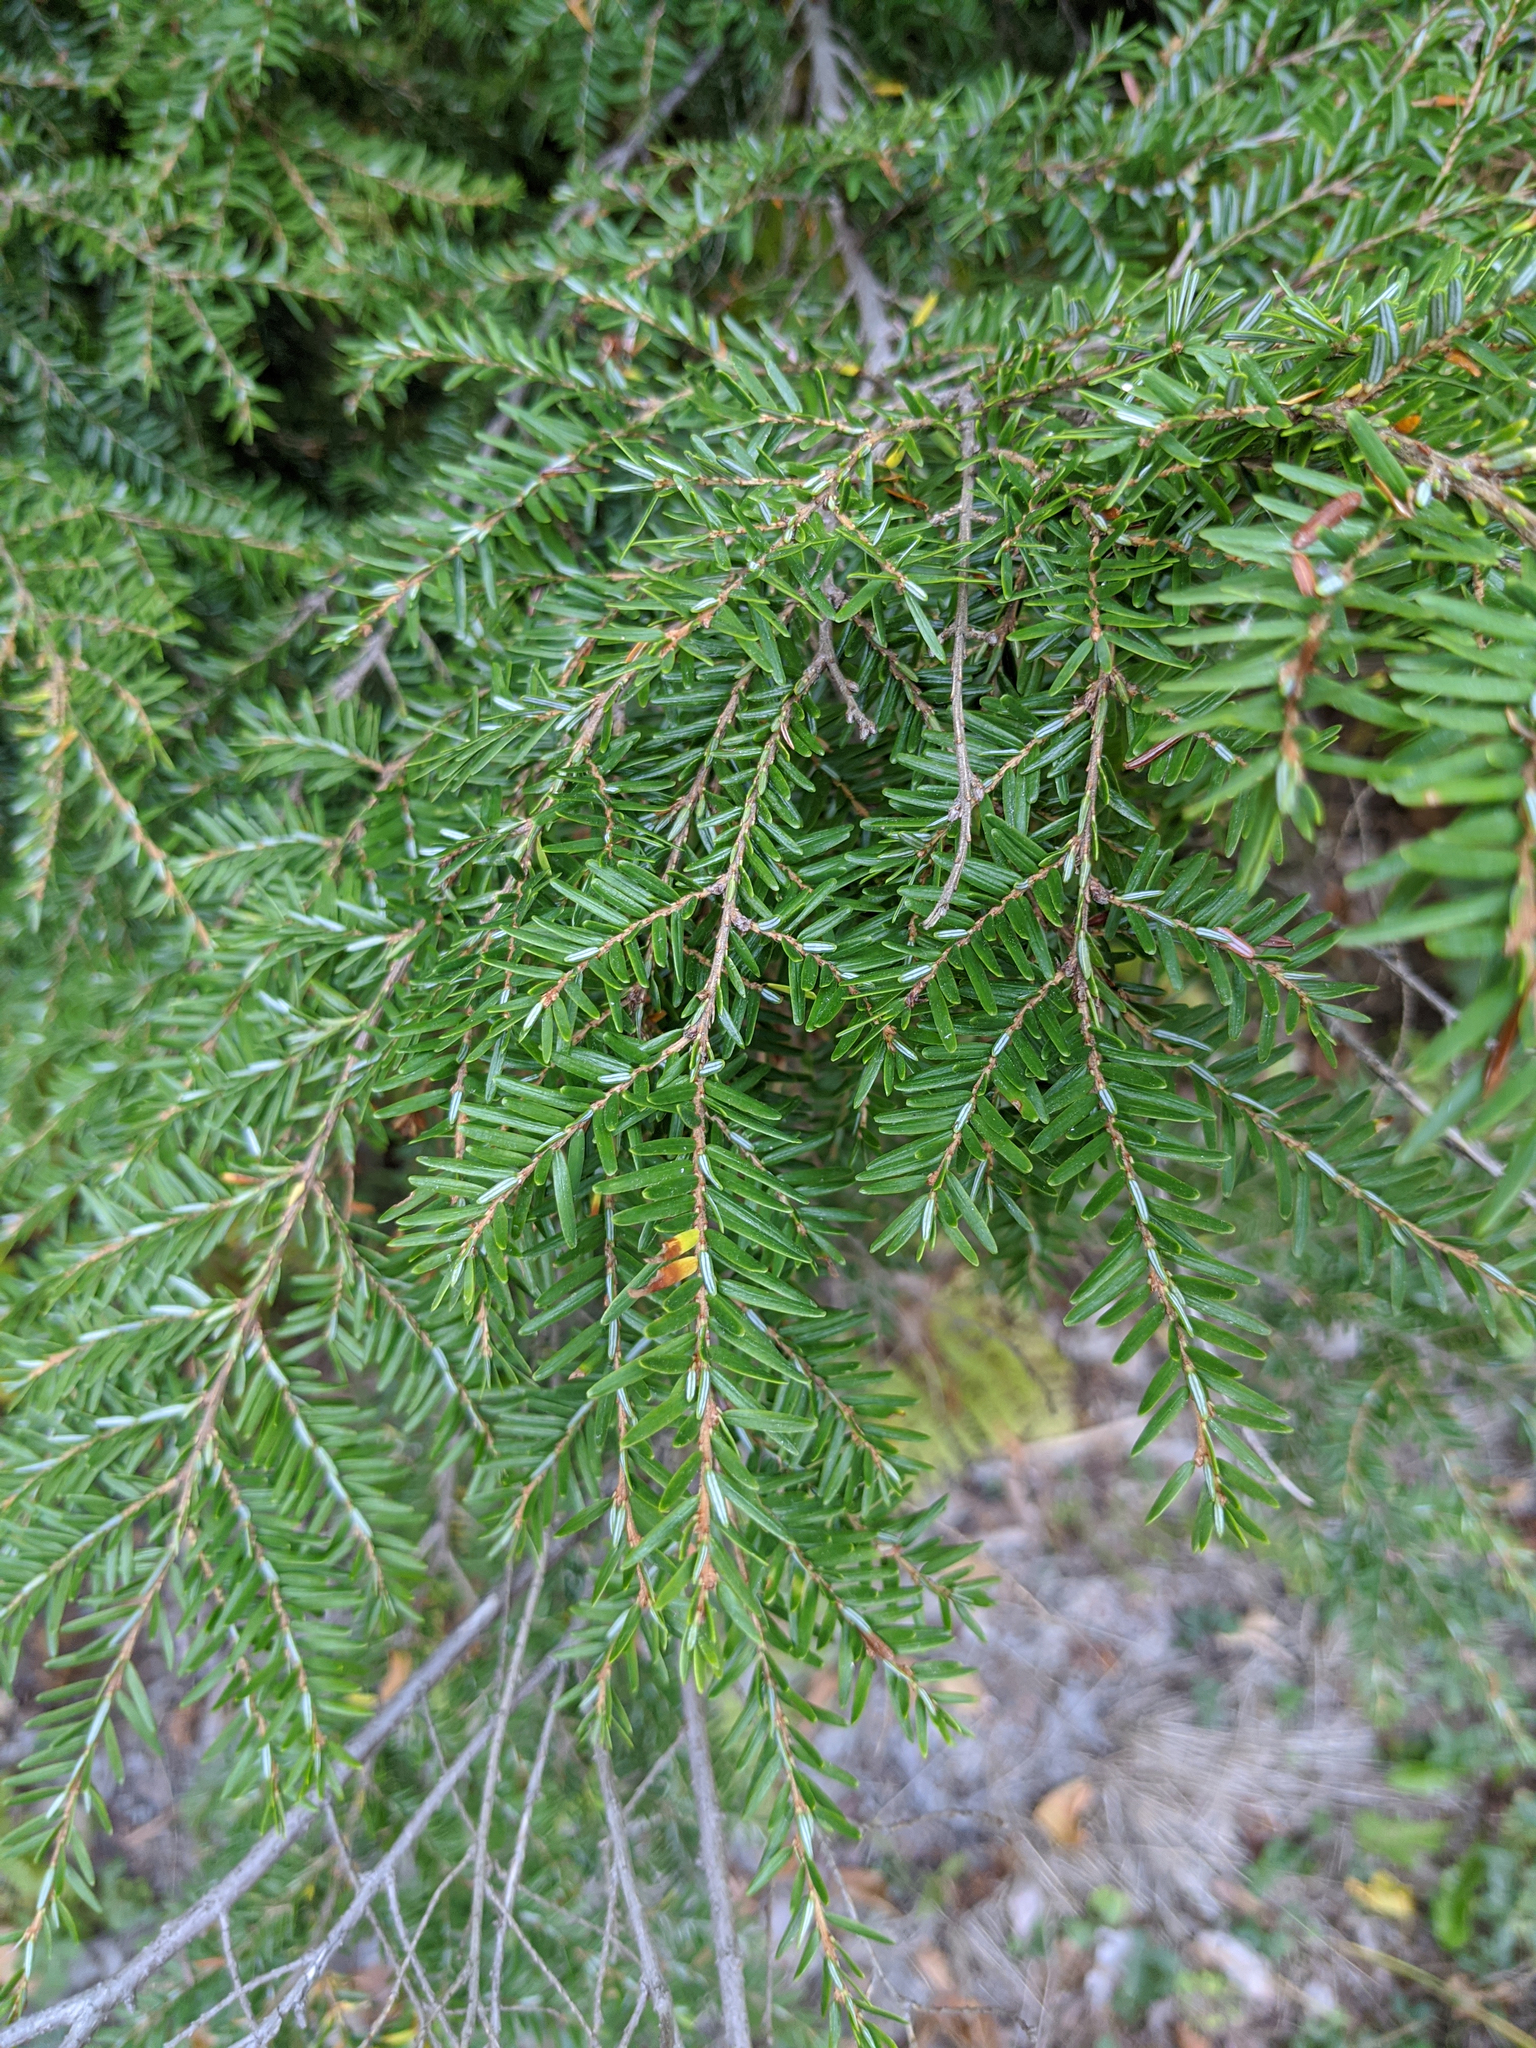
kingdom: Plantae
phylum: Tracheophyta
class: Pinopsida
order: Pinales
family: Pinaceae
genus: Tsuga
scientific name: Tsuga canadensis
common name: Eastern hemlock
